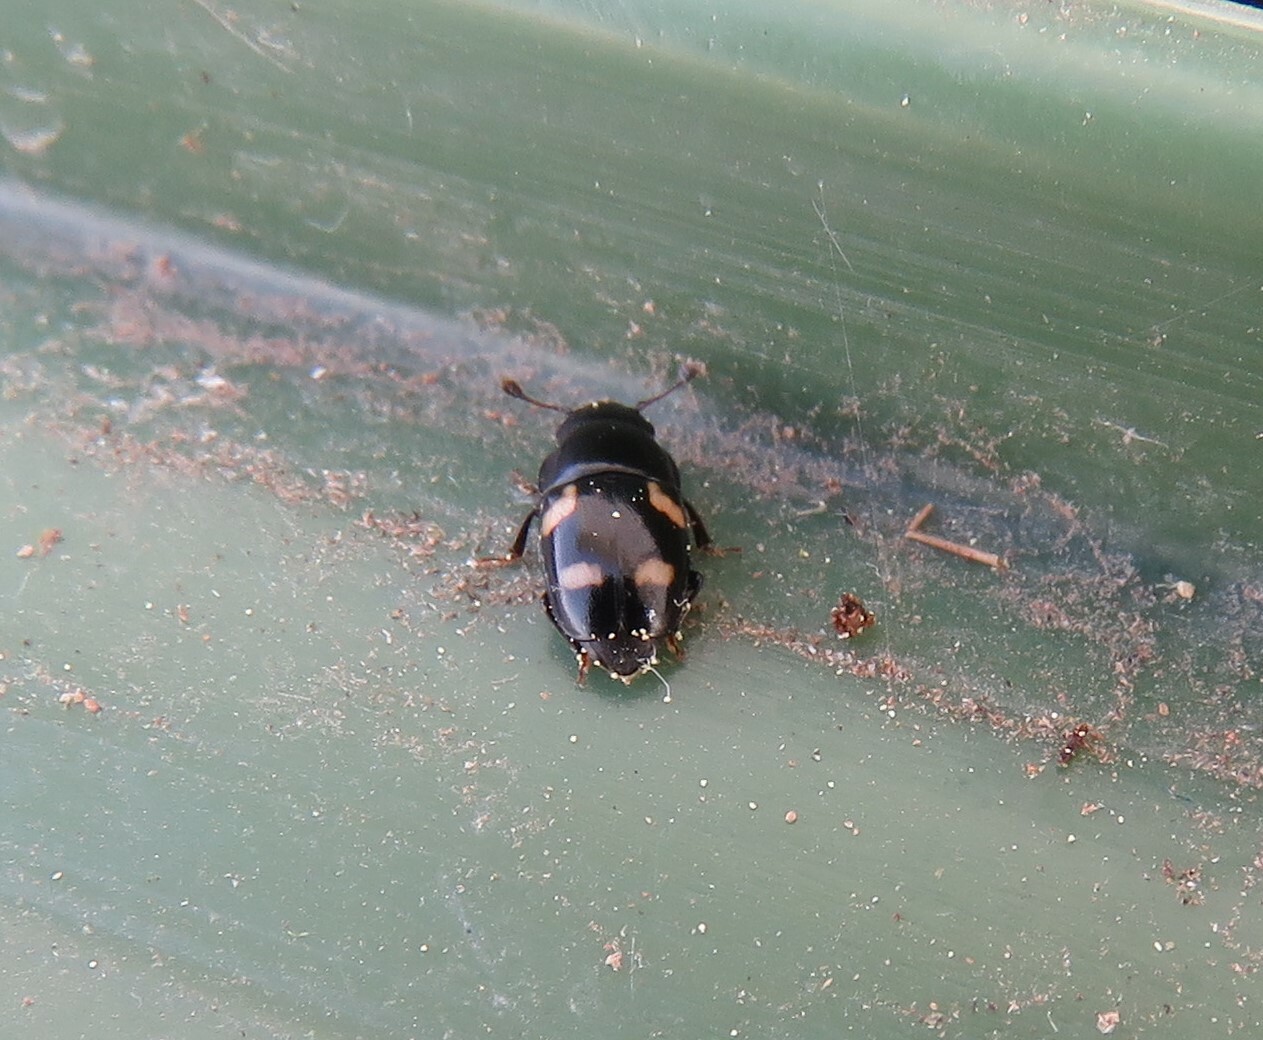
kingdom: Animalia
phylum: Arthropoda
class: Insecta
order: Coleoptera
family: Nitidulidae
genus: Glischrochilus
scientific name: Glischrochilus quadrisignatus
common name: Picnic beetle
